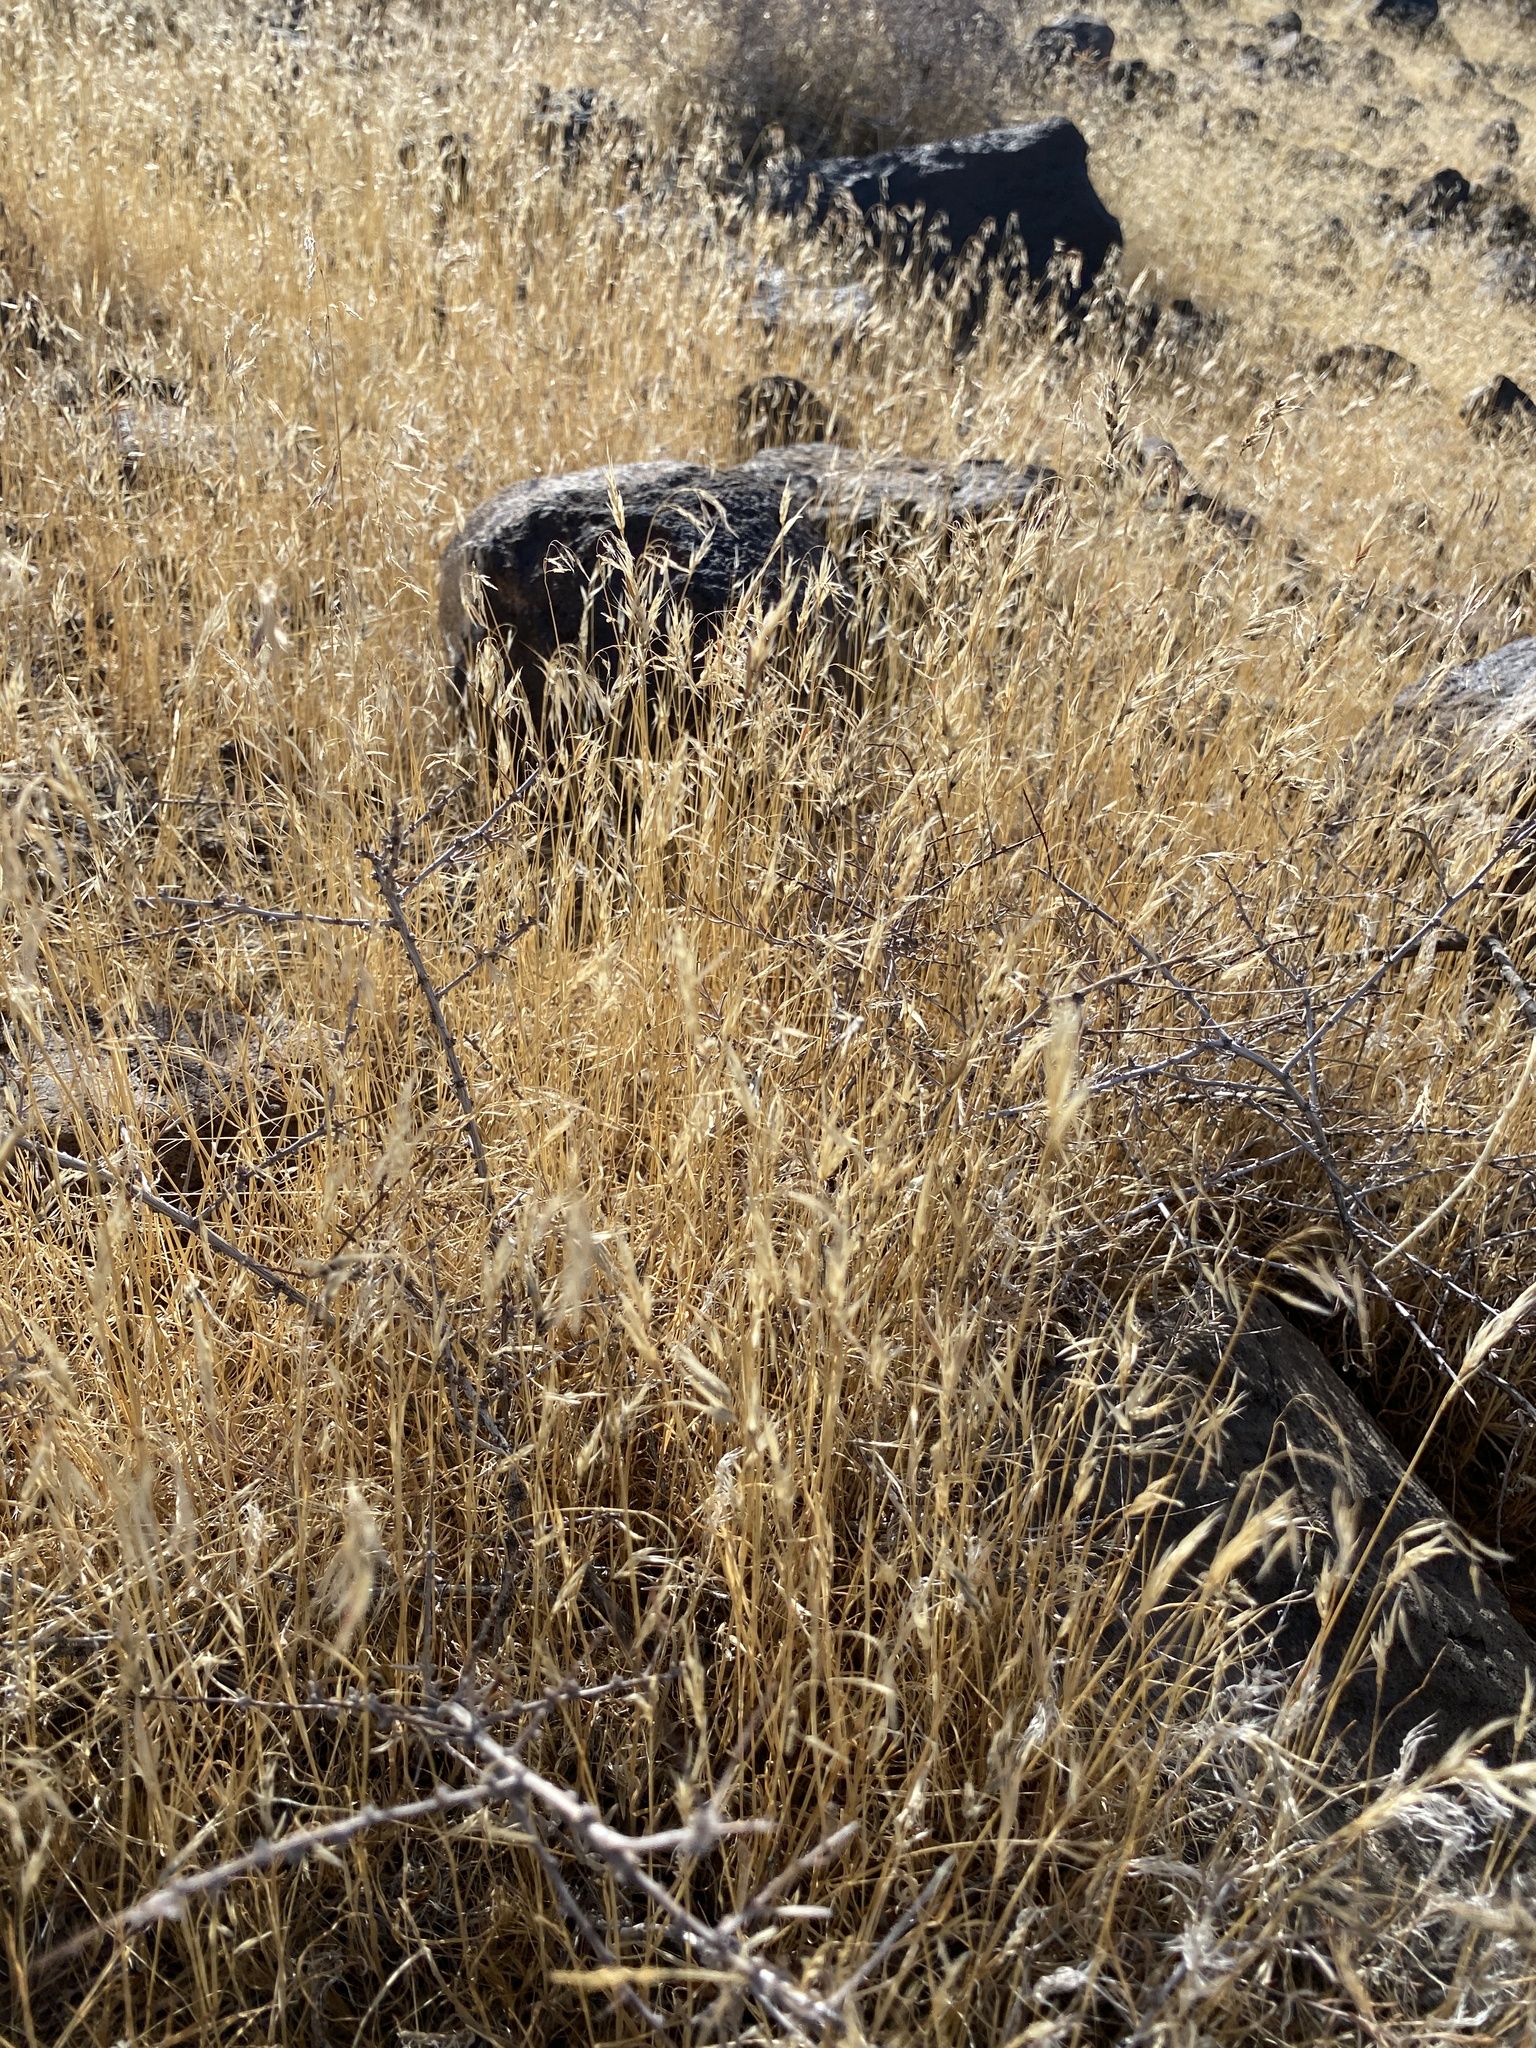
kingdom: Plantae
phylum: Tracheophyta
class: Liliopsida
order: Poales
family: Poaceae
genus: Bromus
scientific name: Bromus tectorum
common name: Cheatgrass
